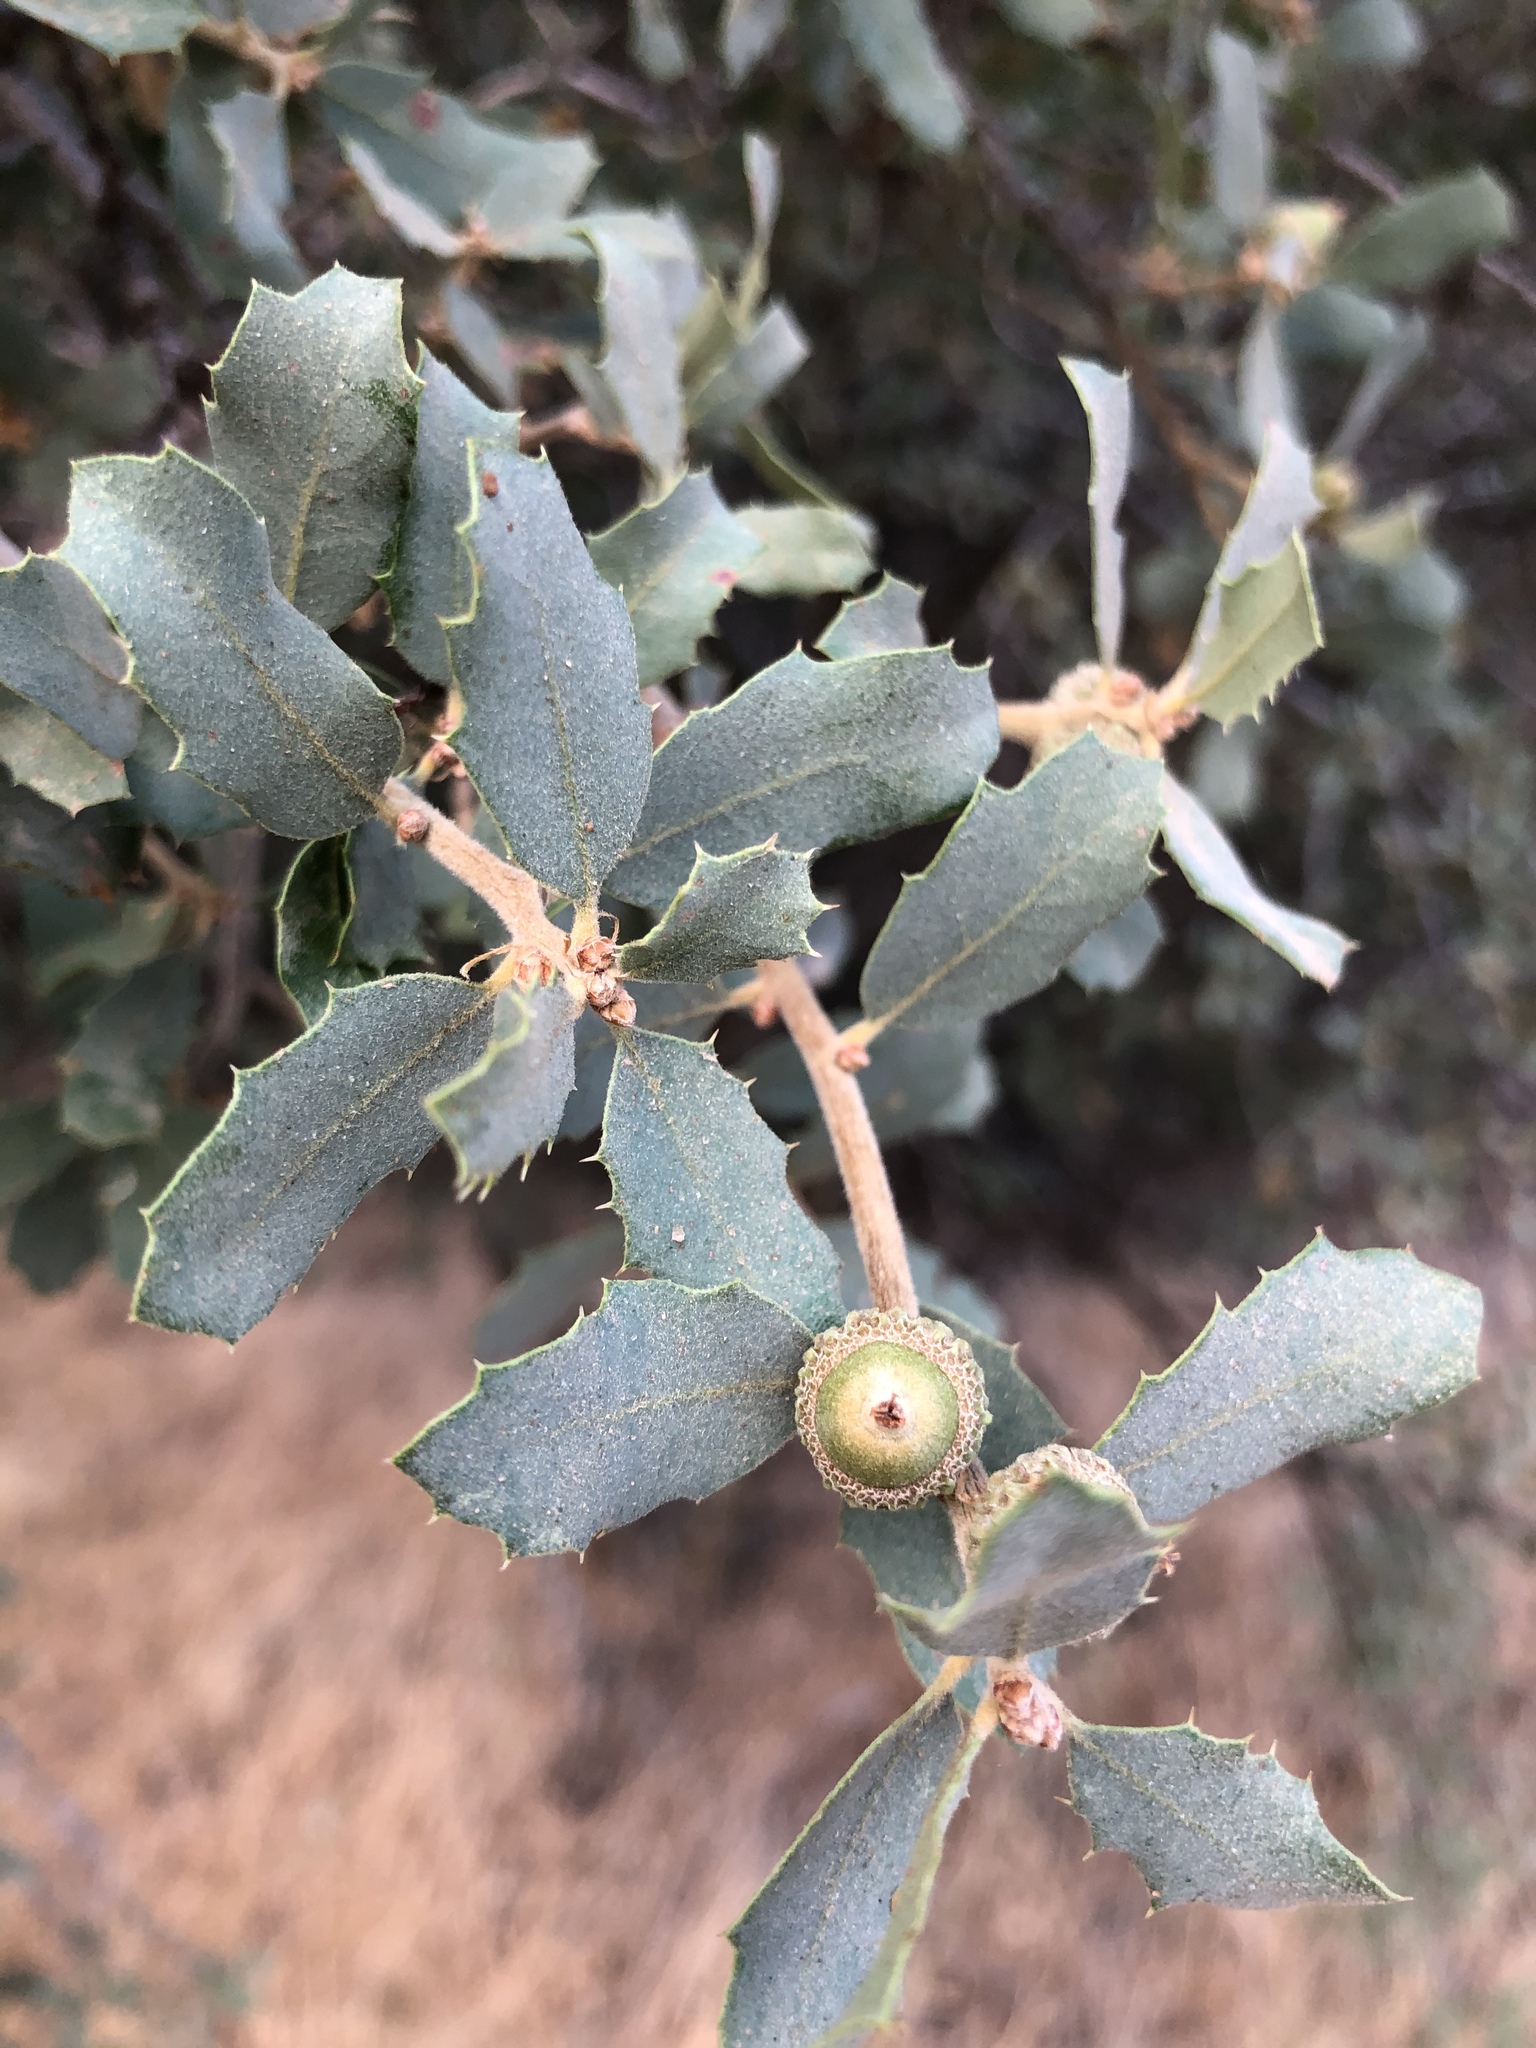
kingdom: Plantae
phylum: Tracheophyta
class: Magnoliopsida
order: Fagales
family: Fagaceae
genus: Quercus
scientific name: Quercus john-tuckeri
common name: Tucker's oak
